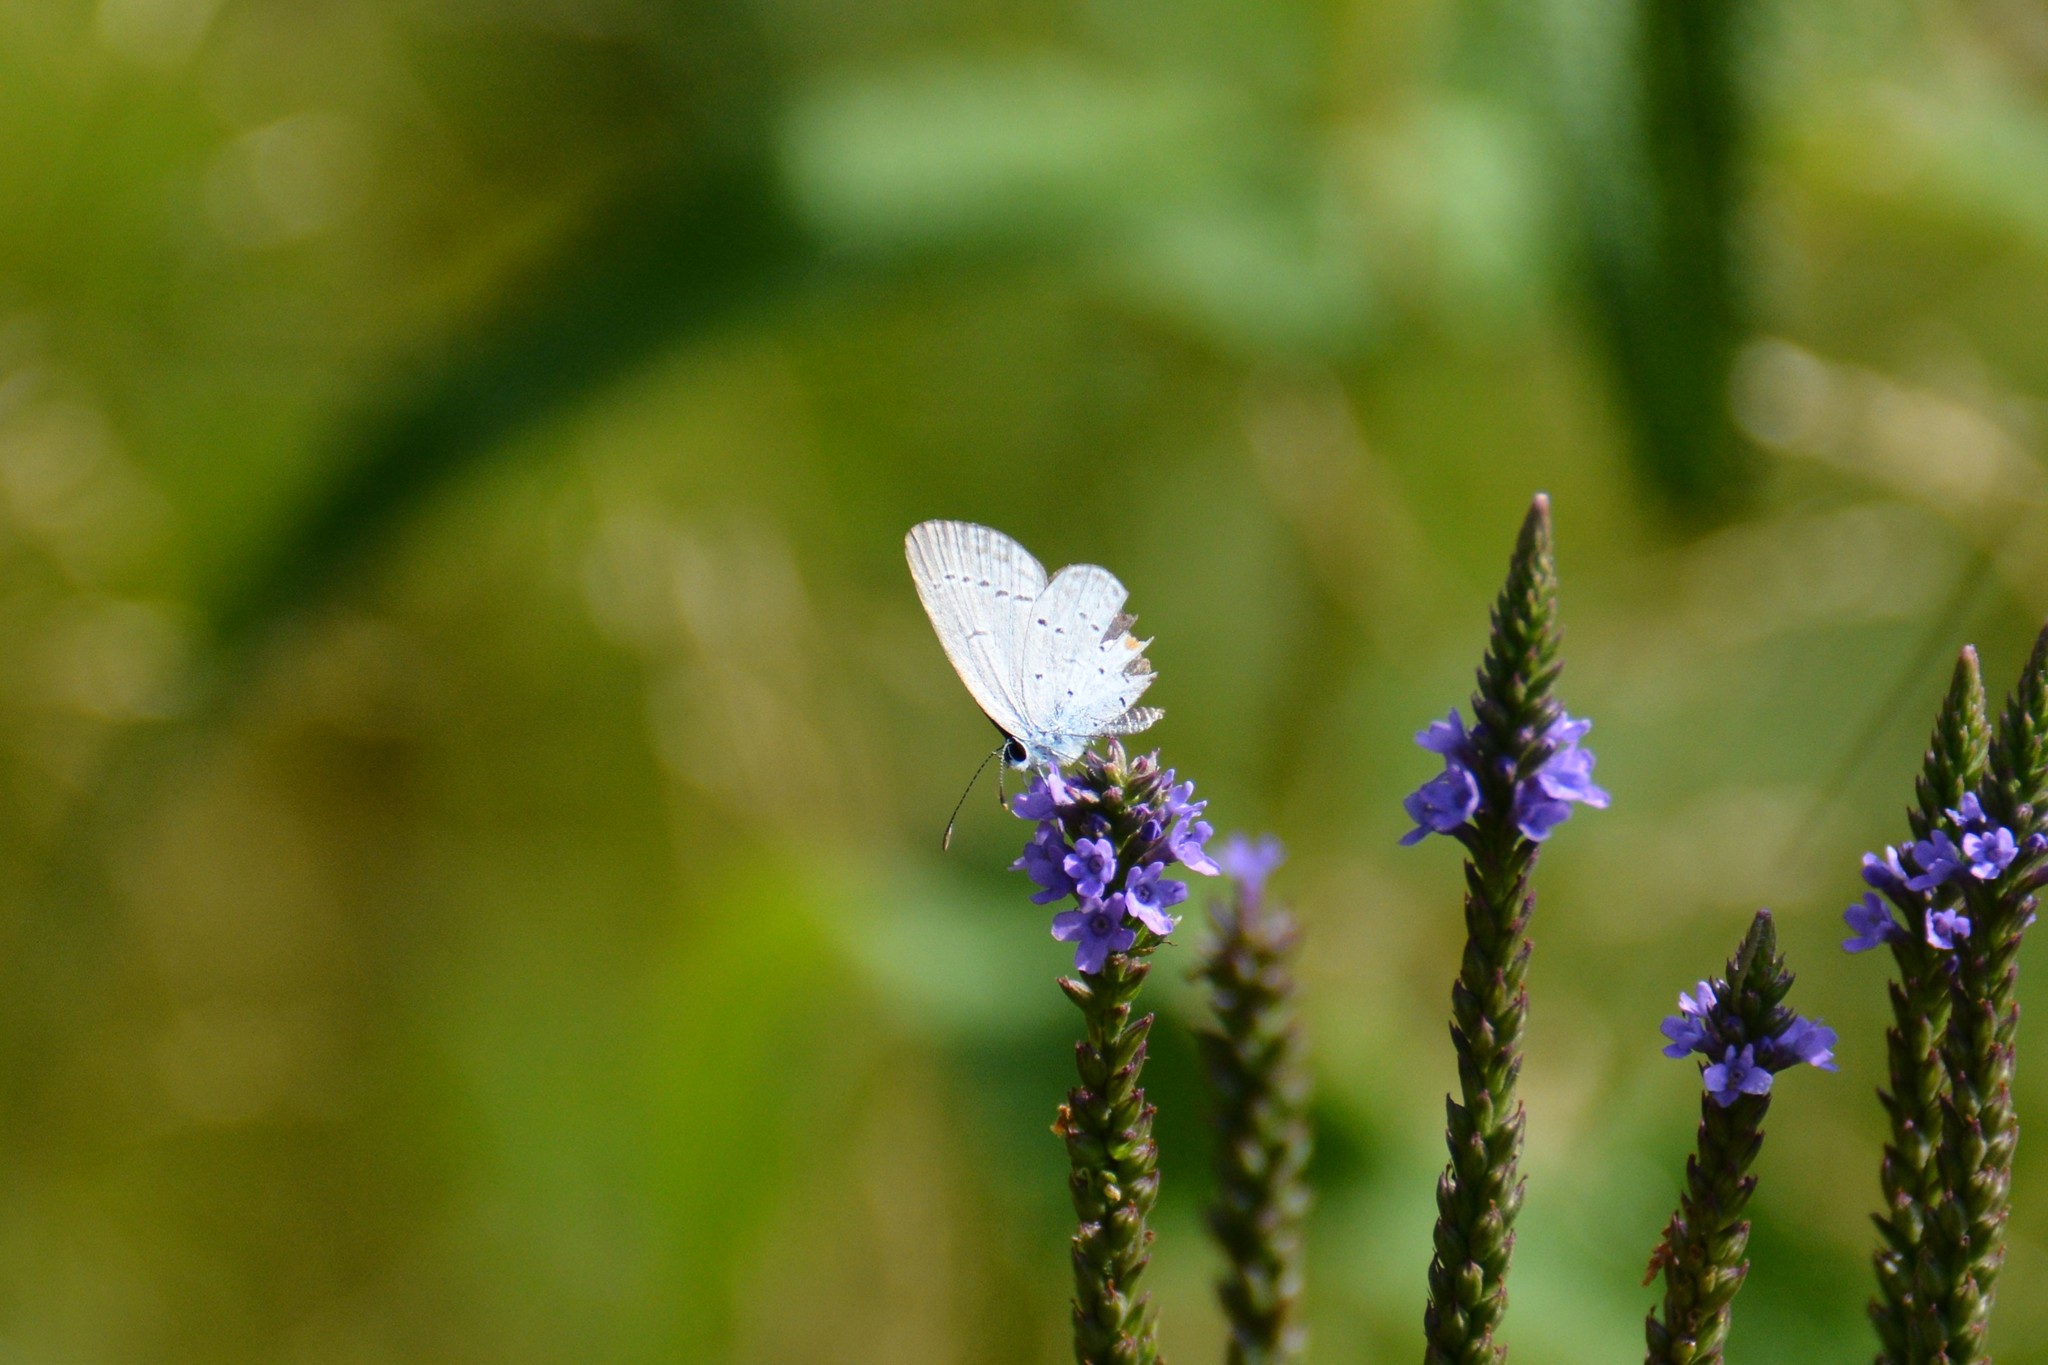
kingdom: Animalia
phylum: Arthropoda
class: Insecta
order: Lepidoptera
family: Lycaenidae
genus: Elkalyce
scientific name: Elkalyce comyntas
